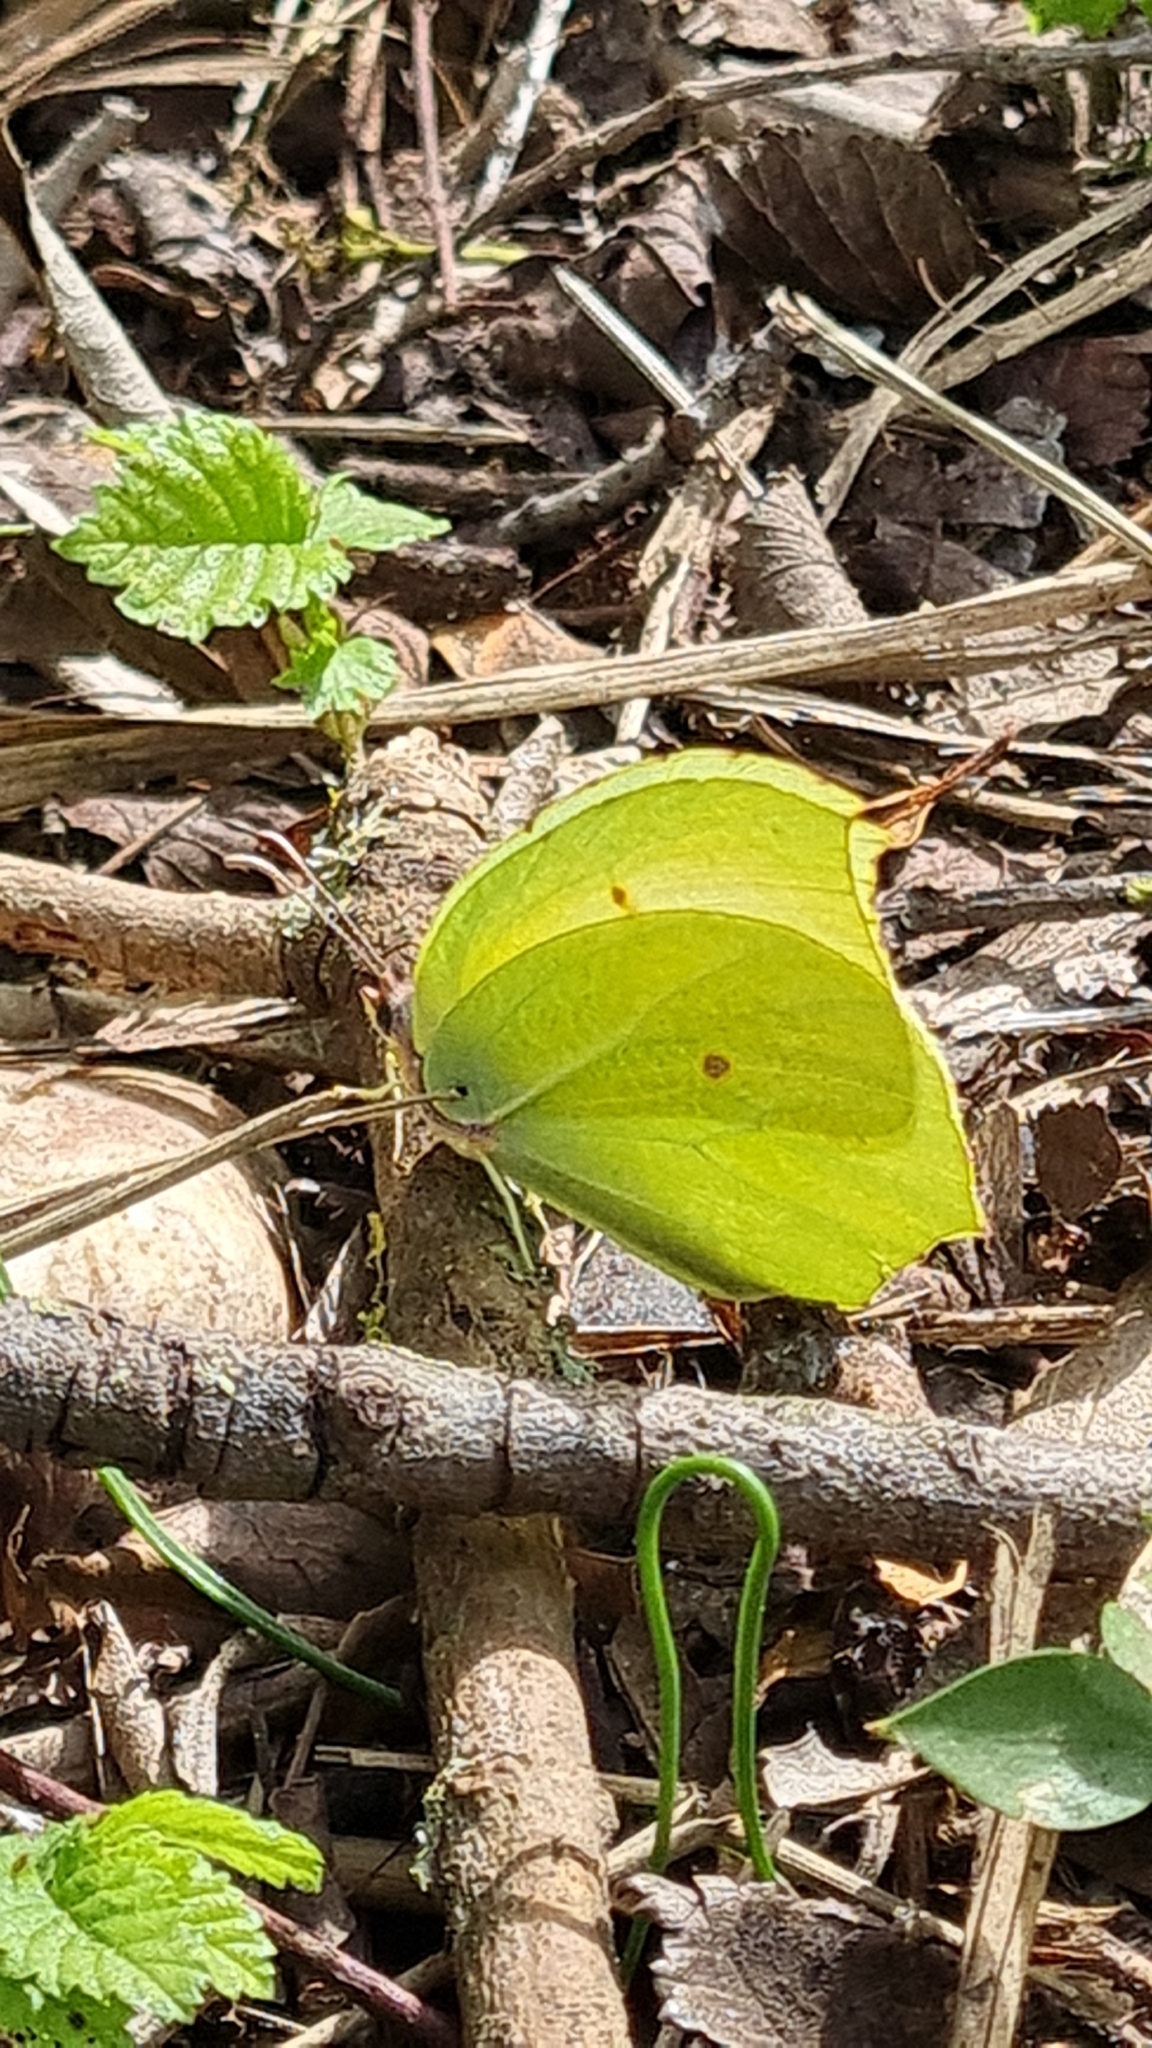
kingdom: Animalia
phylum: Arthropoda
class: Insecta
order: Lepidoptera
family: Pieridae
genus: Gonepteryx
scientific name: Gonepteryx rhamni
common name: Brimstone
